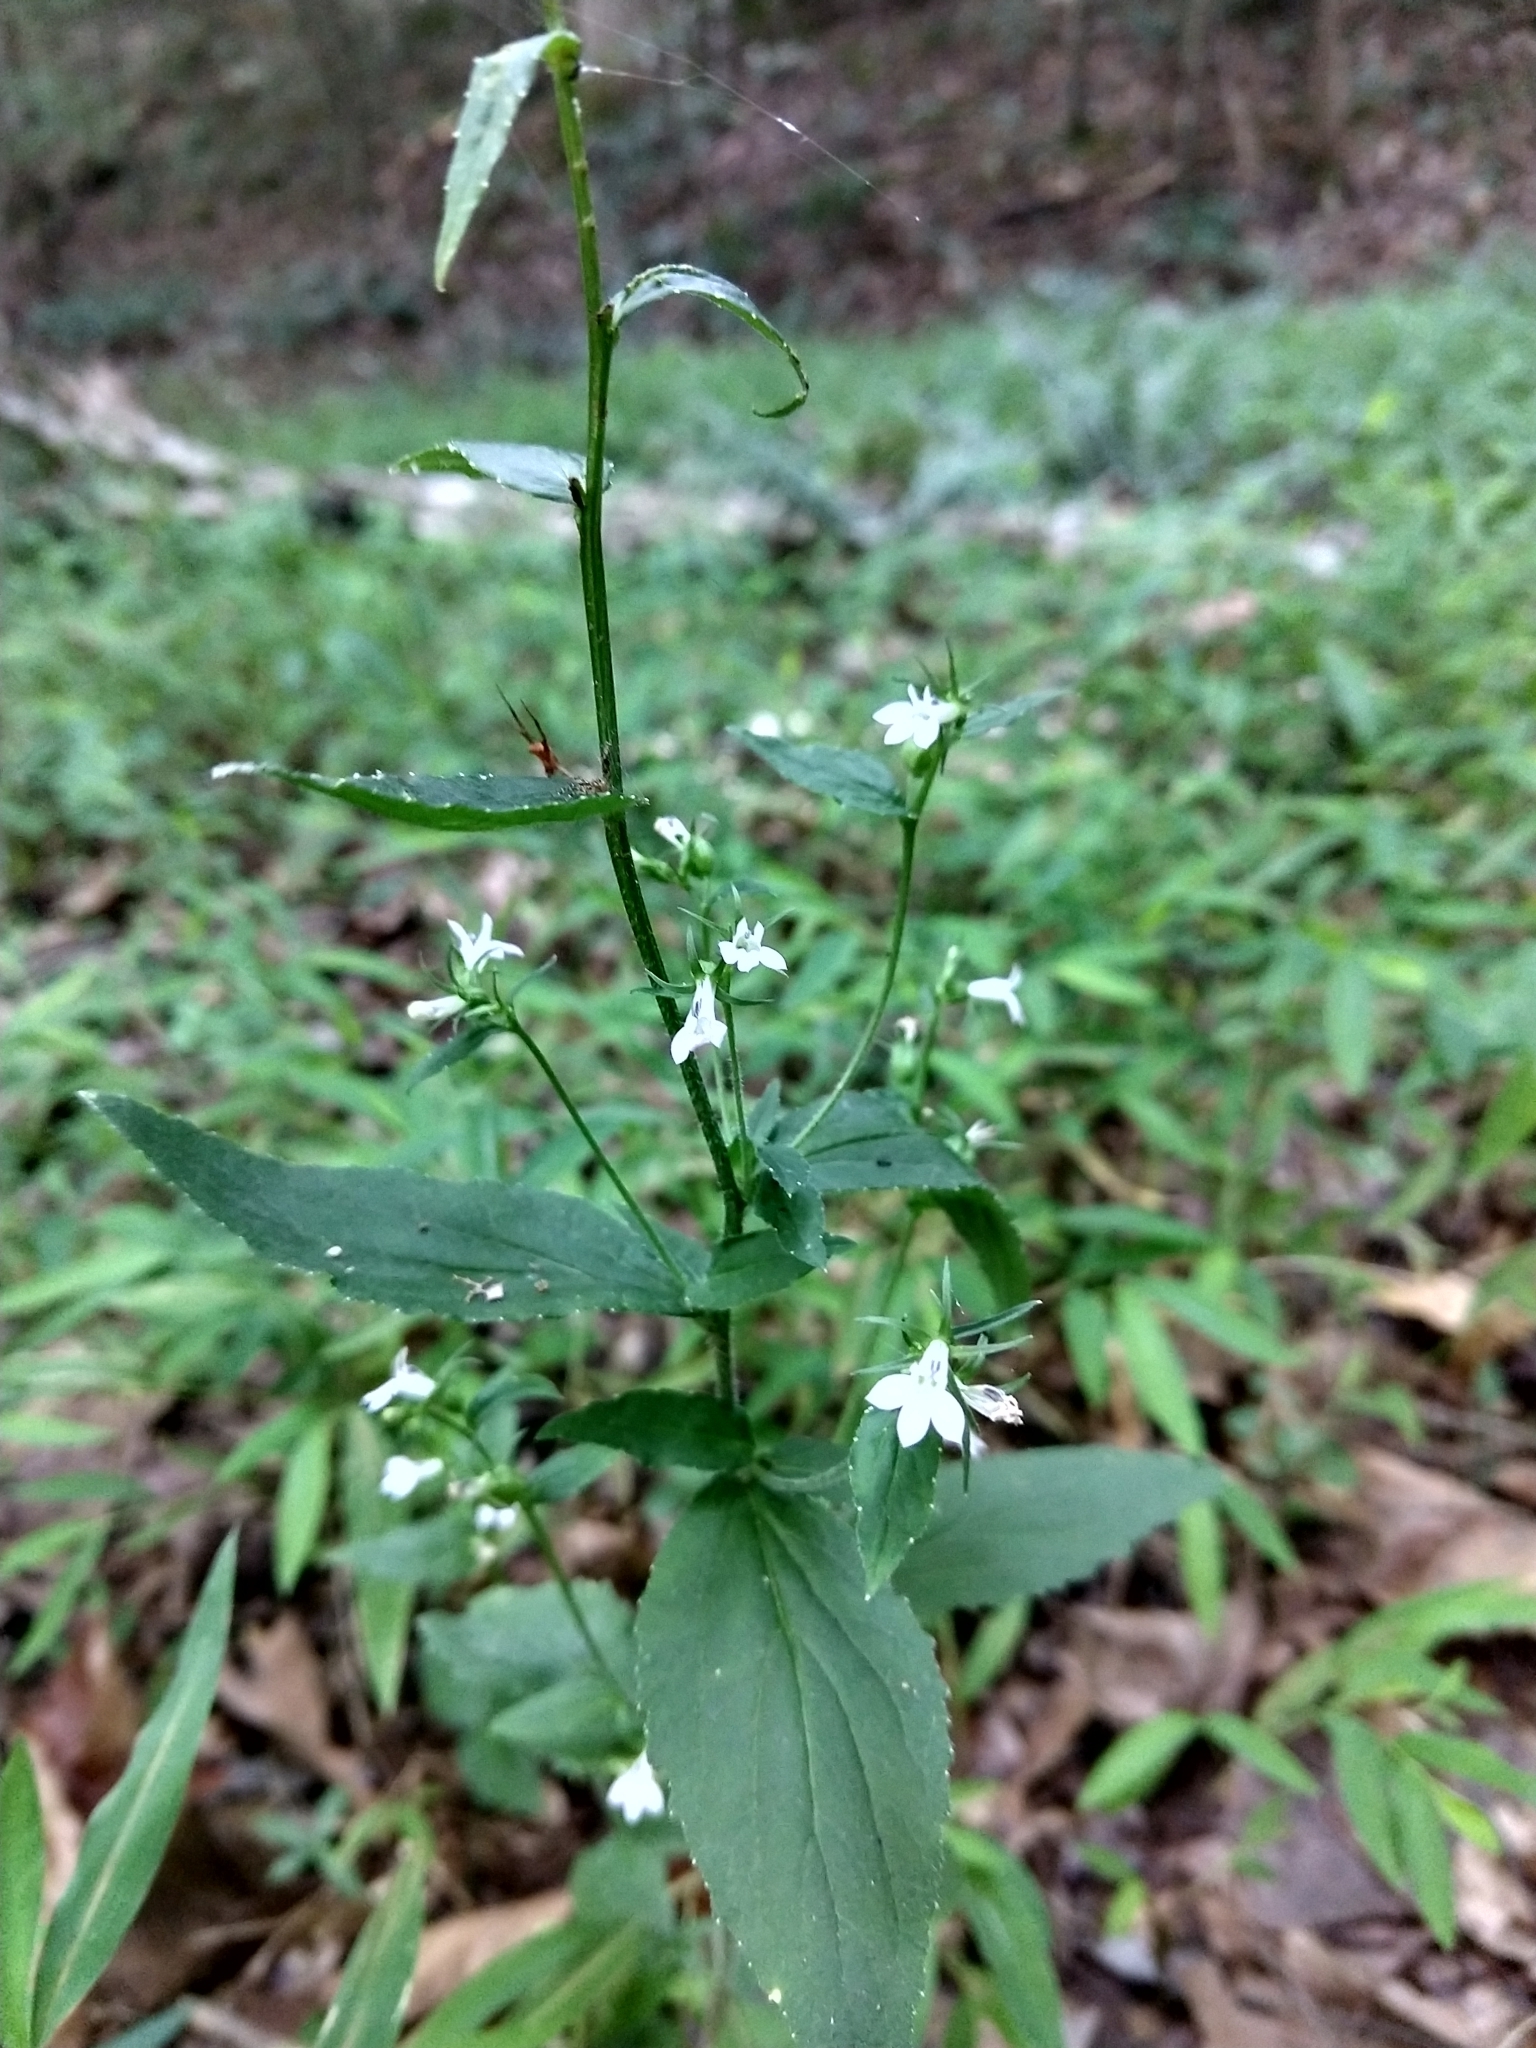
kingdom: Plantae
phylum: Tracheophyta
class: Magnoliopsida
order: Asterales
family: Campanulaceae
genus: Lobelia
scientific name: Lobelia inflata
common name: Indian tobacco
